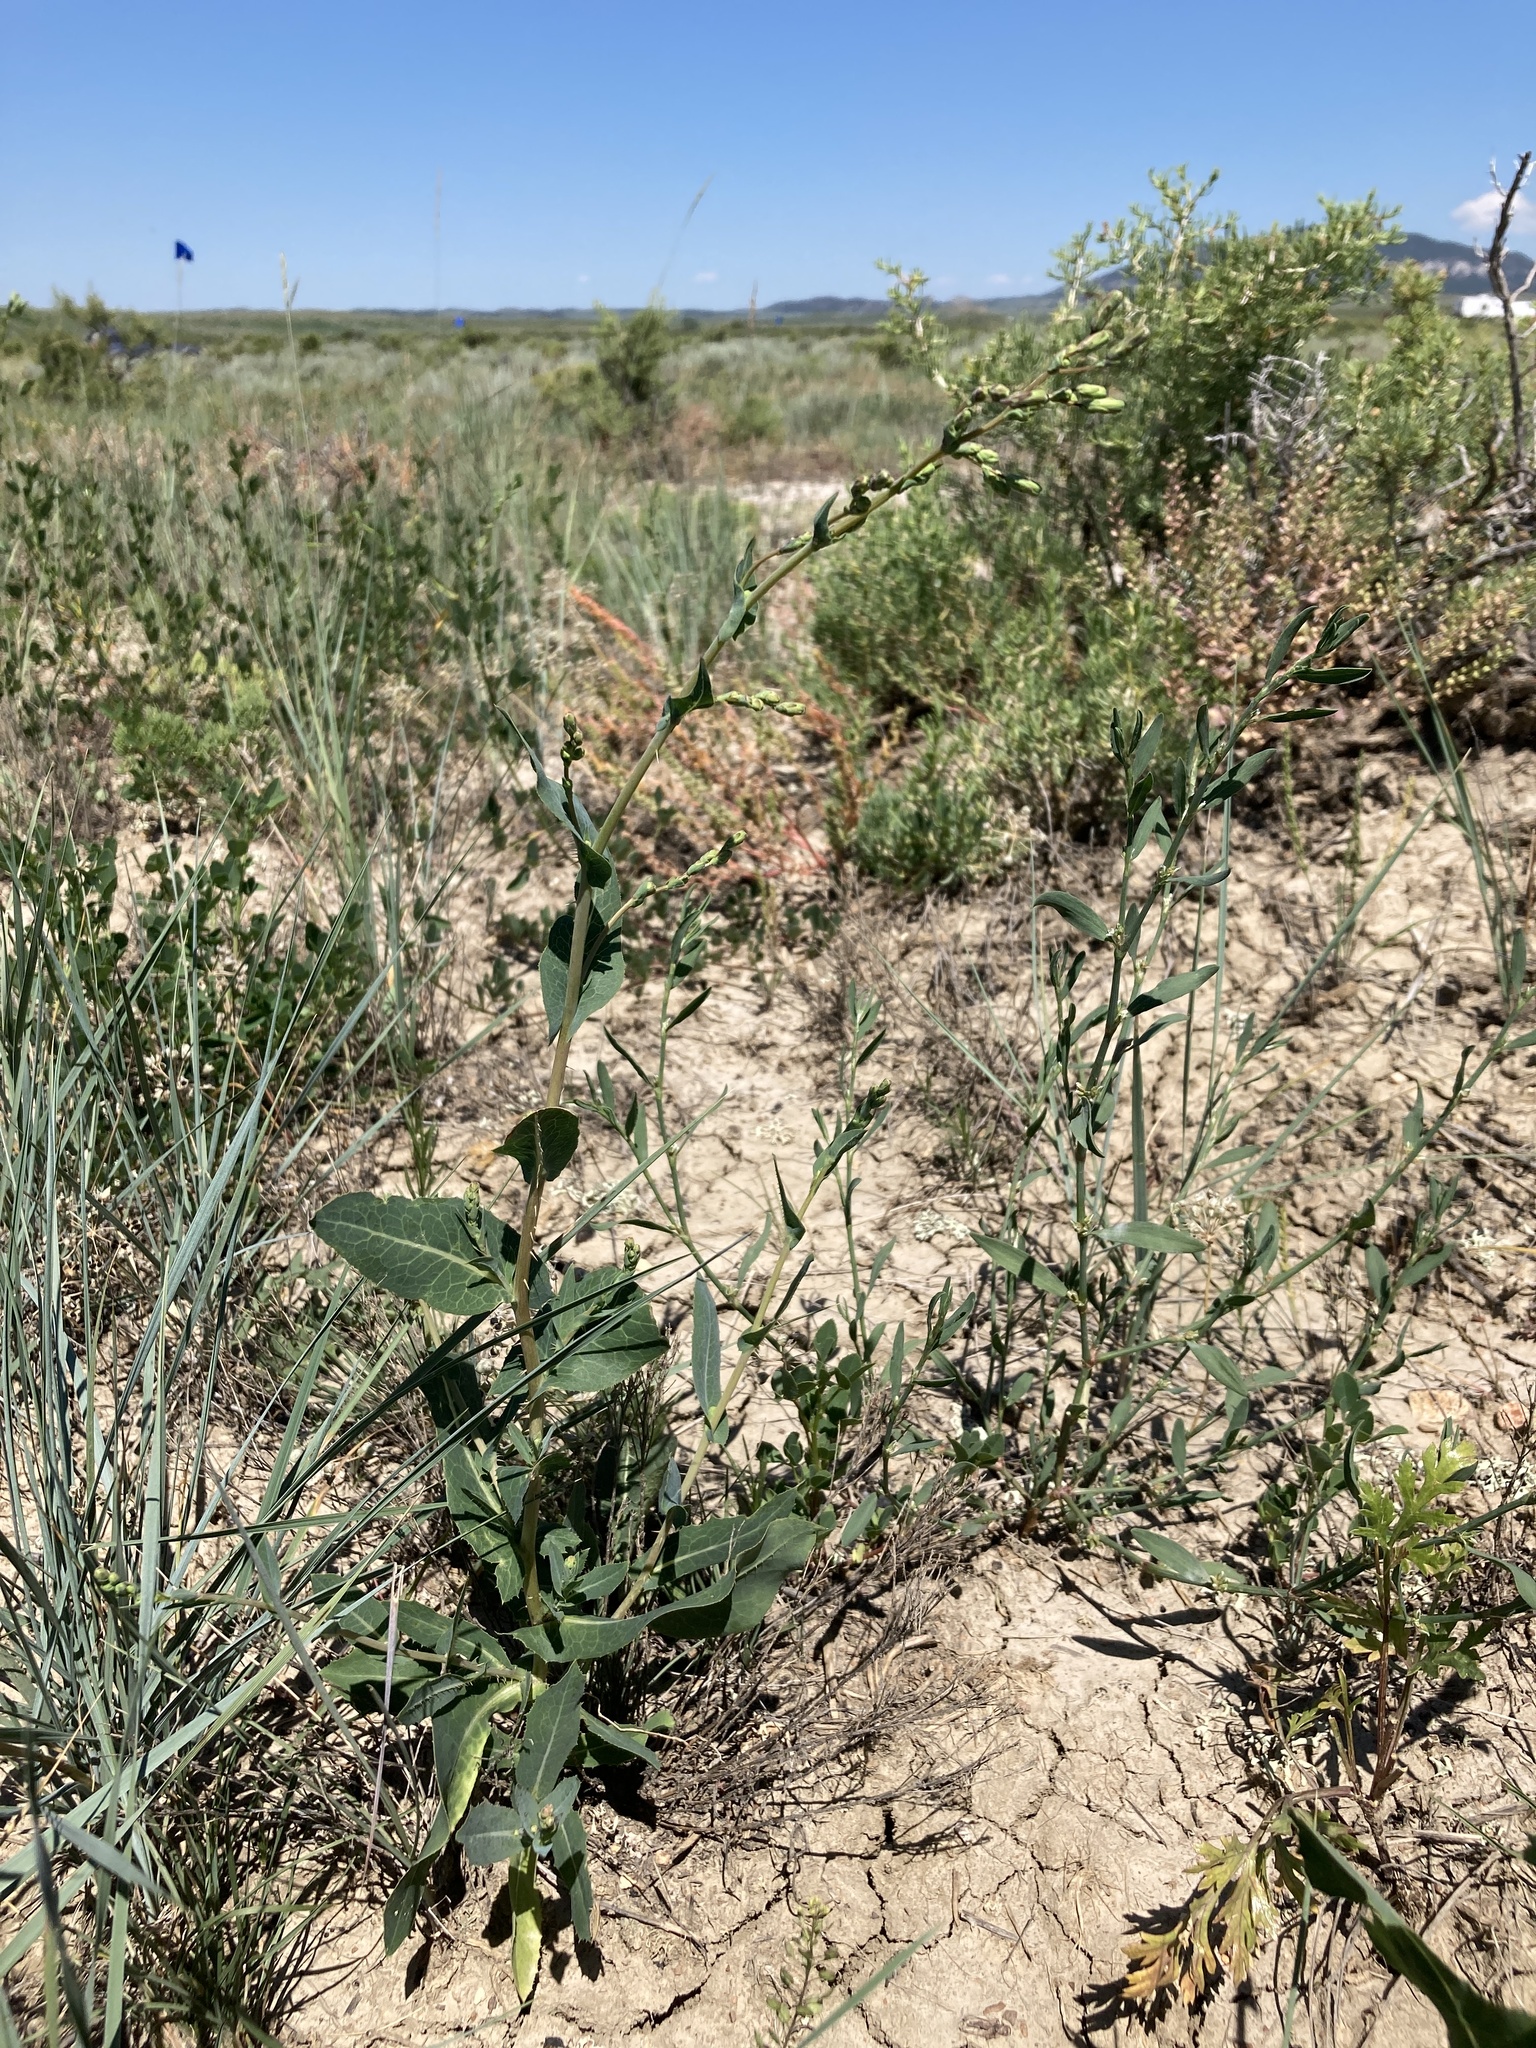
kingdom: Plantae
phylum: Tracheophyta
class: Magnoliopsida
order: Asterales
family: Asteraceae
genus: Lactuca
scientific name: Lactuca serriola
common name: Prickly lettuce
